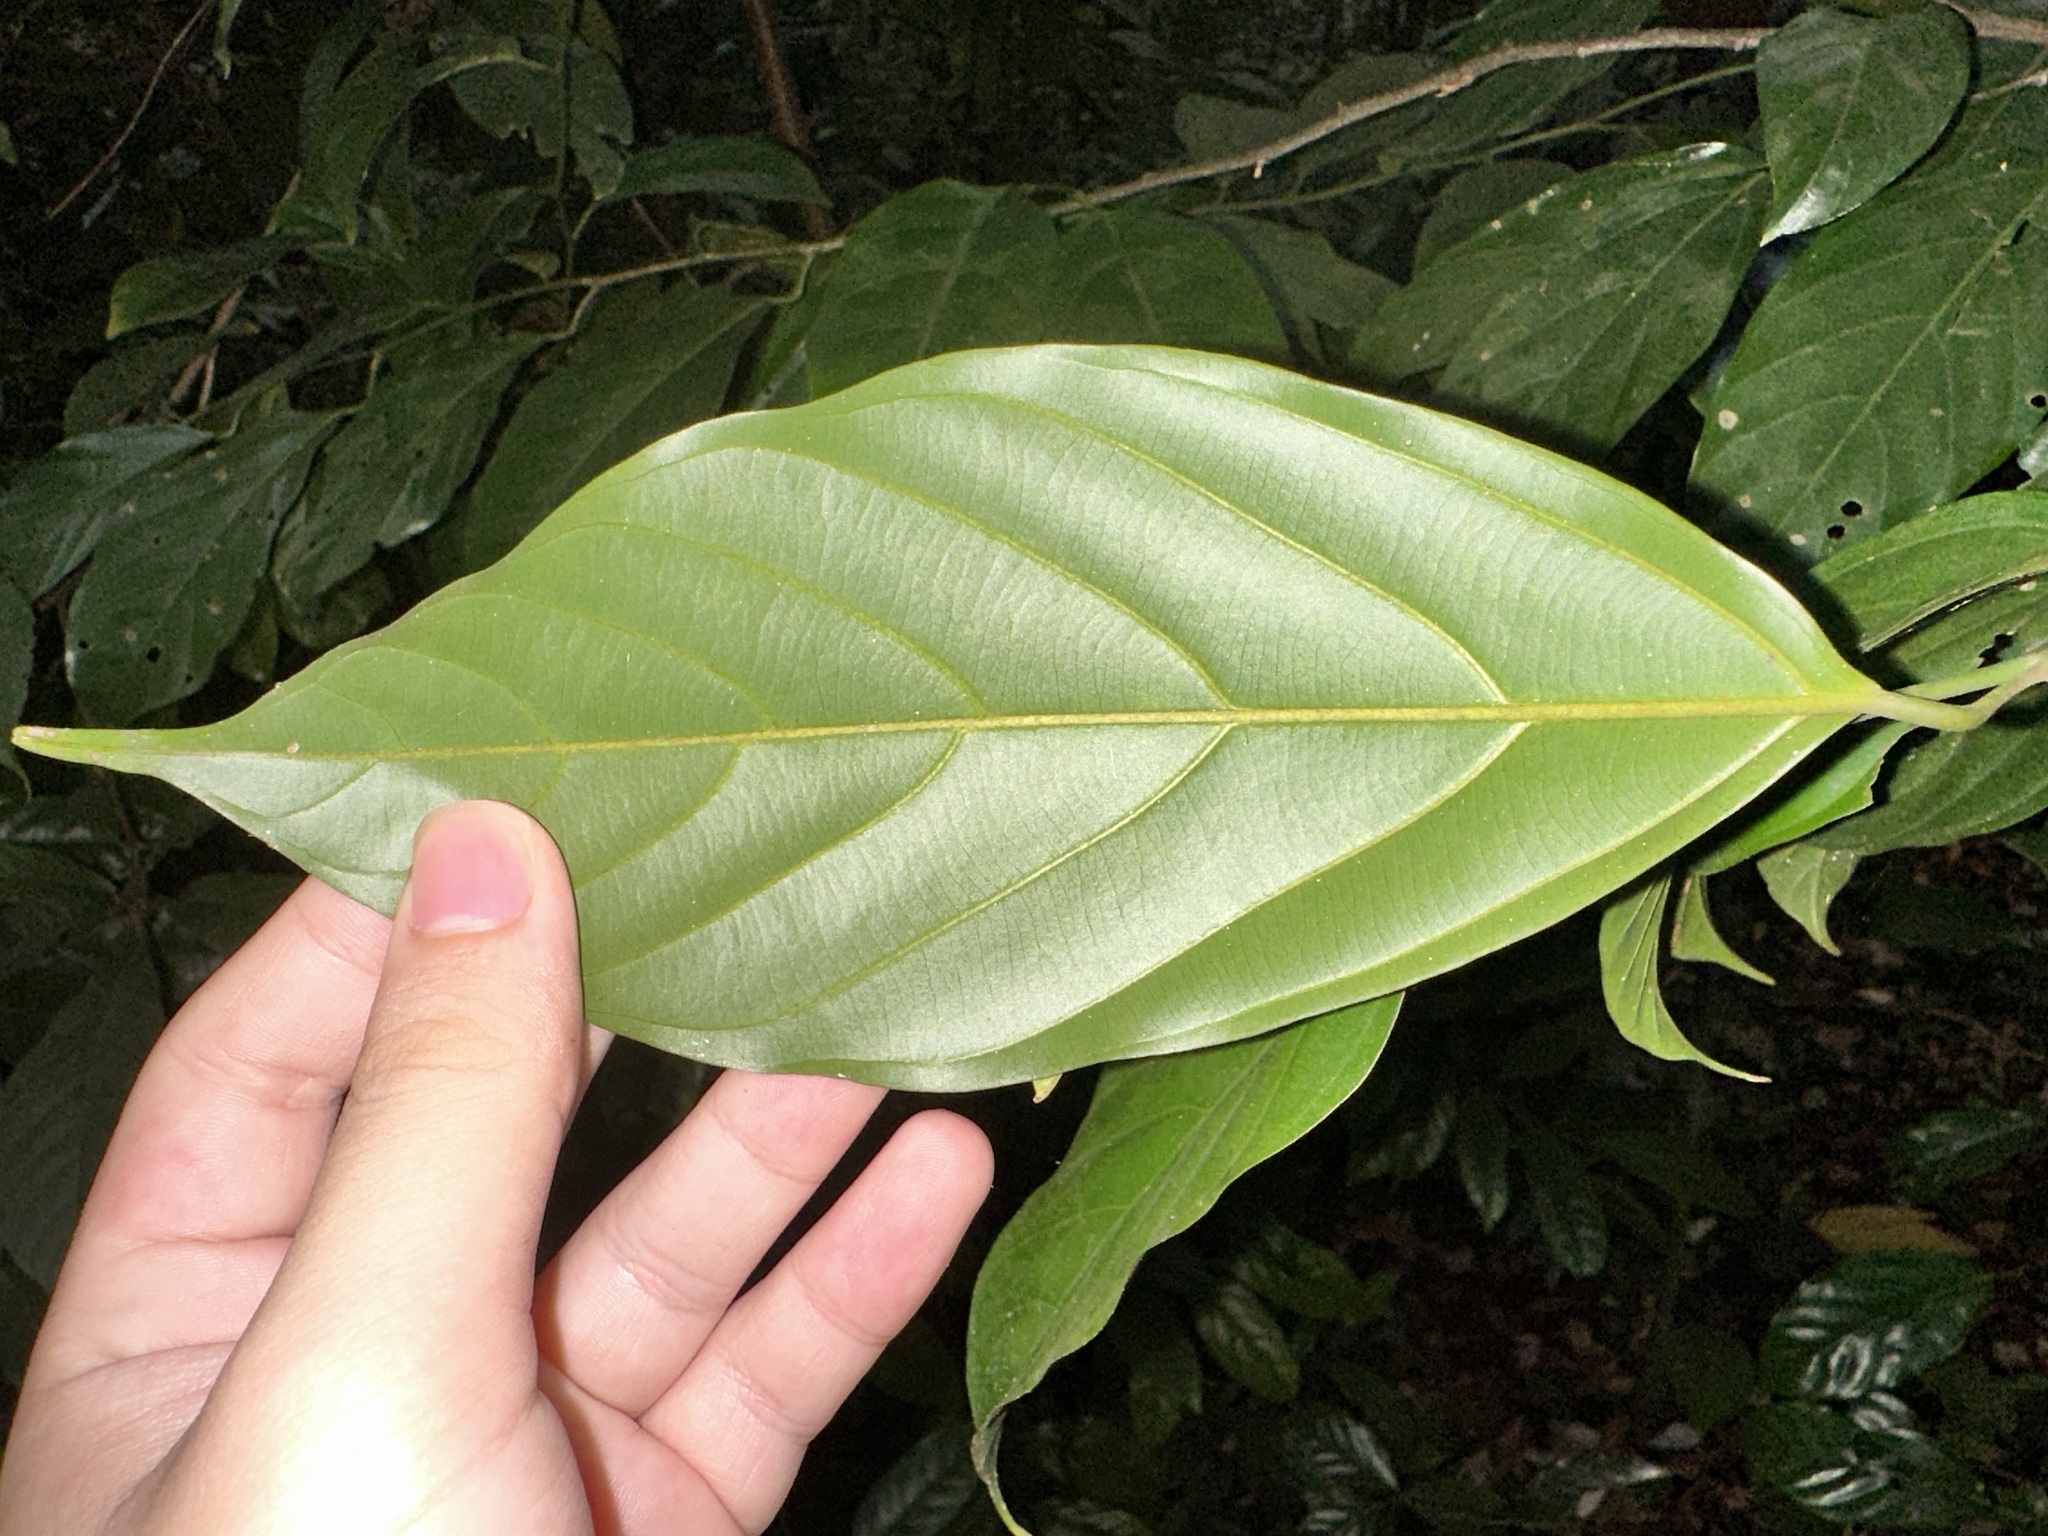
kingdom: Plantae
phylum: Tracheophyta
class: Magnoliopsida
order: Santalales
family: Coulaceae
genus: Ochanostachys
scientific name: Ochanostachys amentacea
